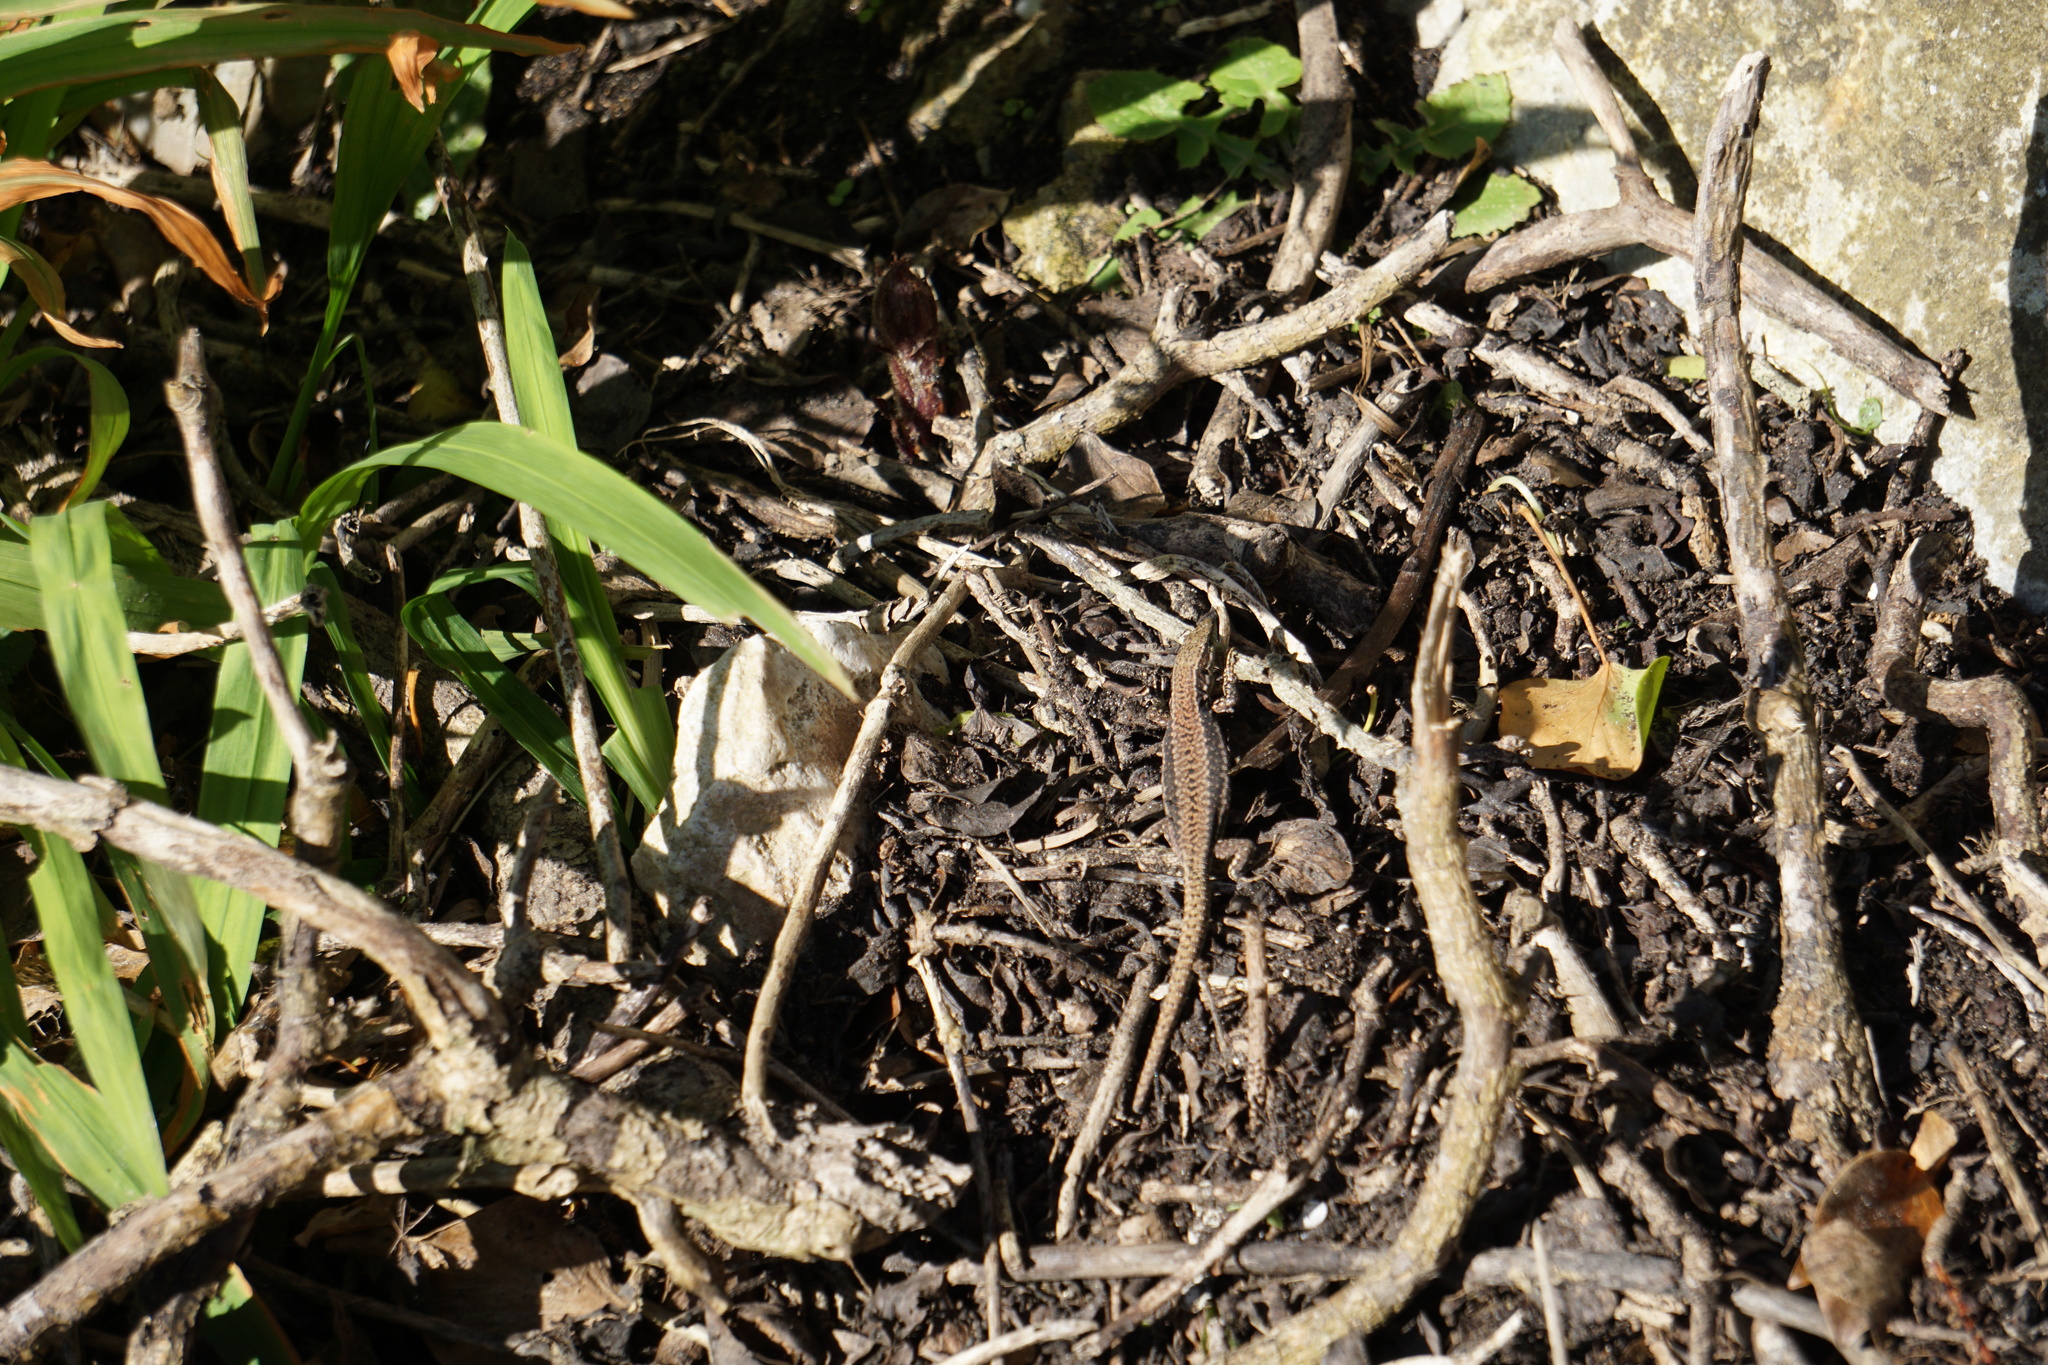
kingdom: Animalia
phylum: Chordata
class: Squamata
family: Lacertidae
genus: Podarcis
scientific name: Podarcis muralis
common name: Common wall lizard
